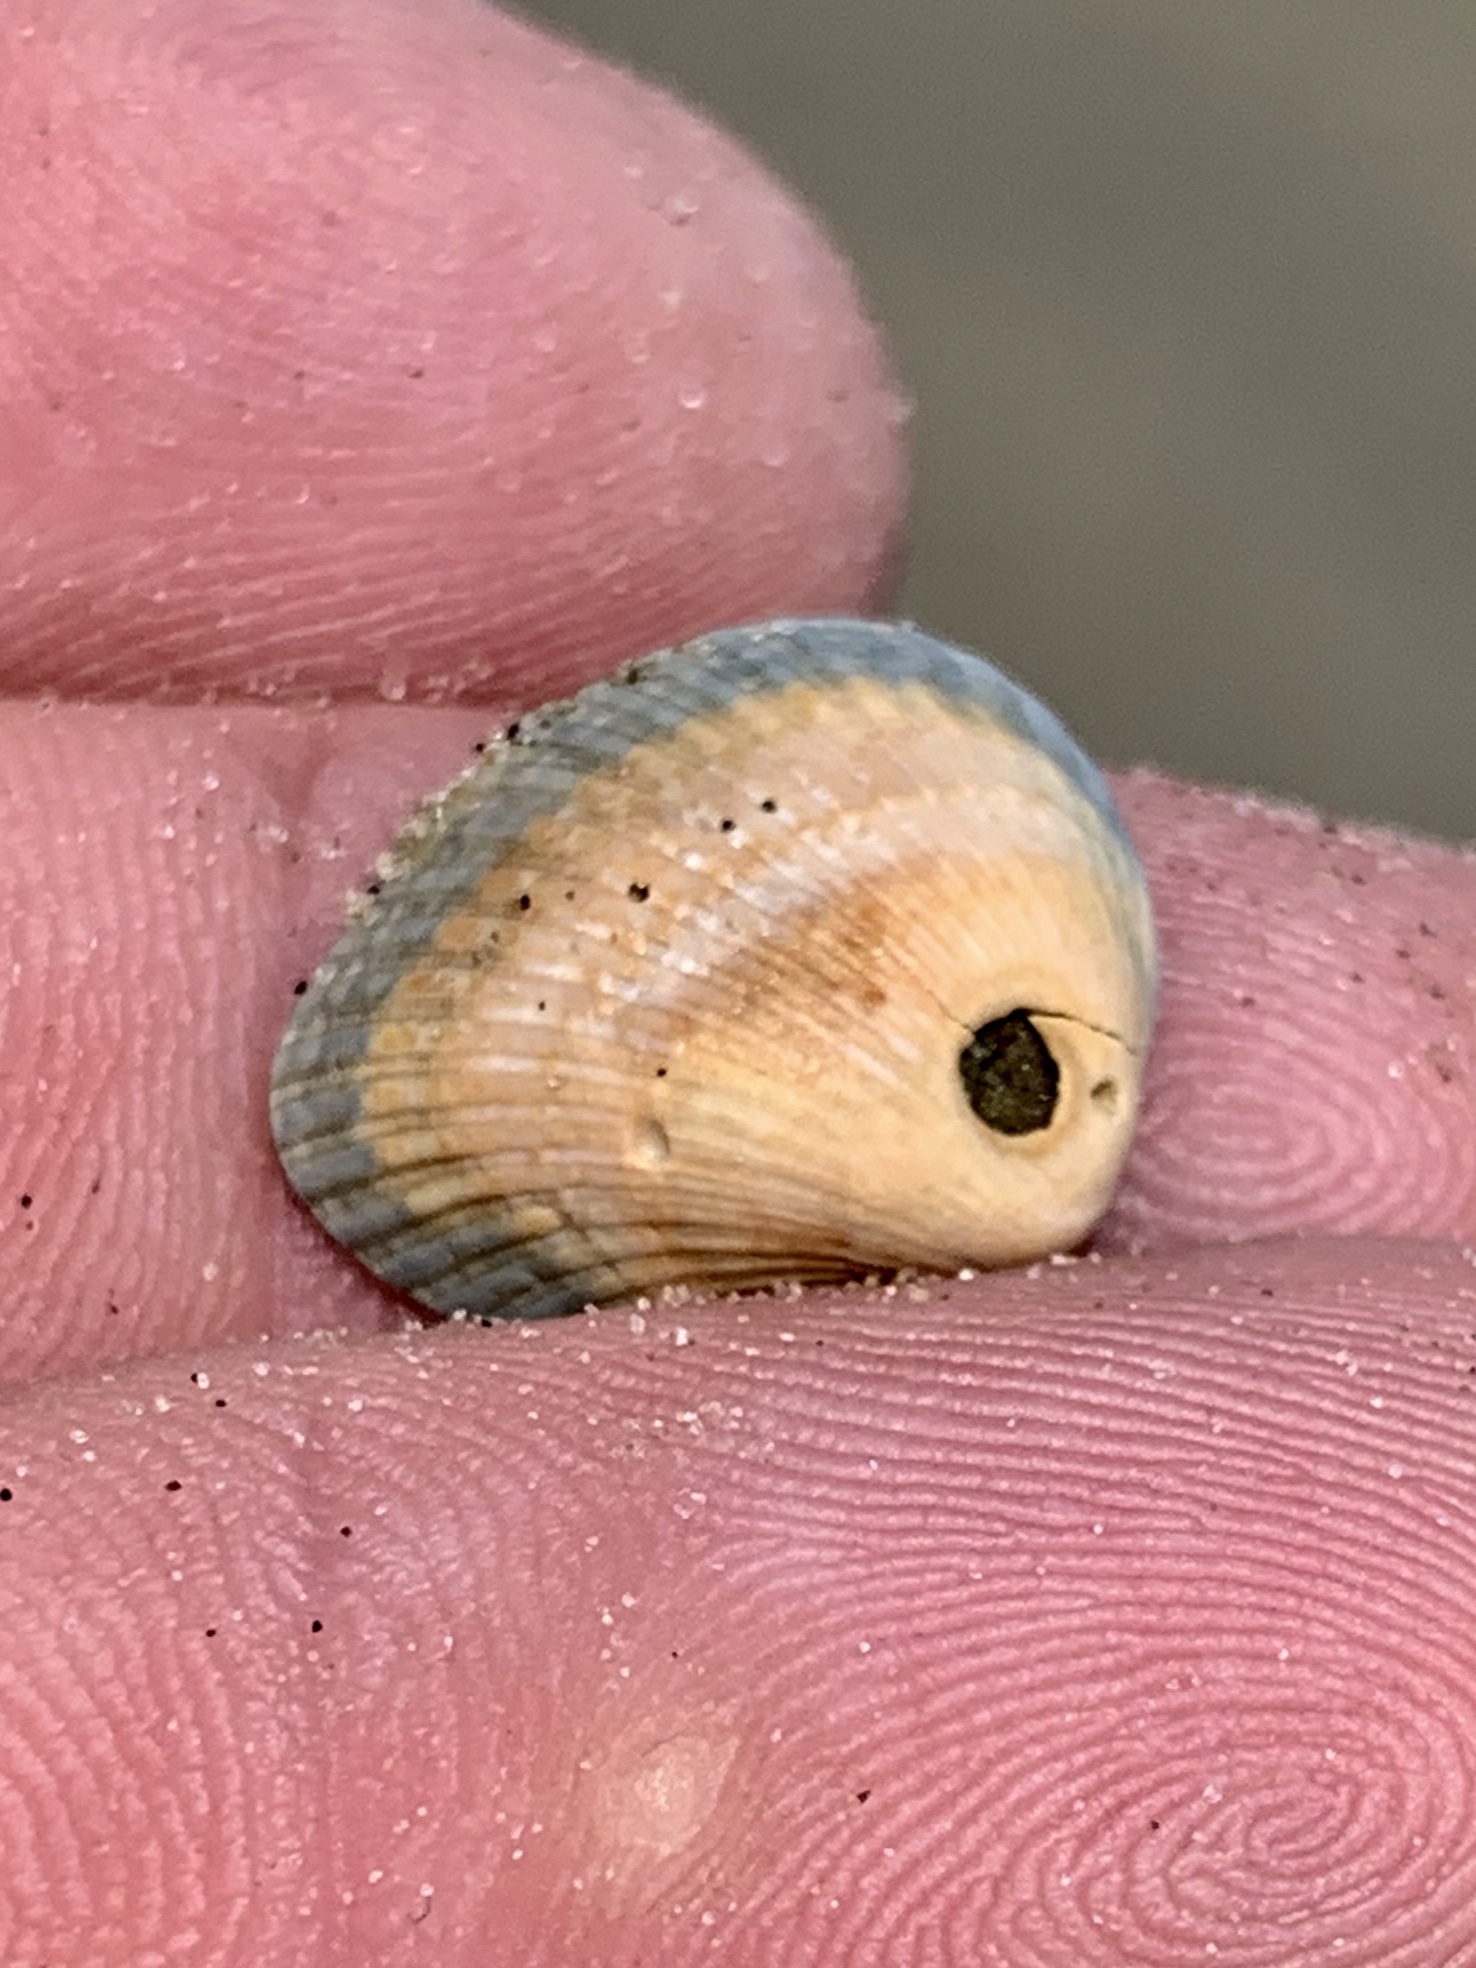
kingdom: Animalia
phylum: Mollusca
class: Bivalvia
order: Arcida
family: Noetiidae
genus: Noetia
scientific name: Noetia ponderosa
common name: Ponderous ark
